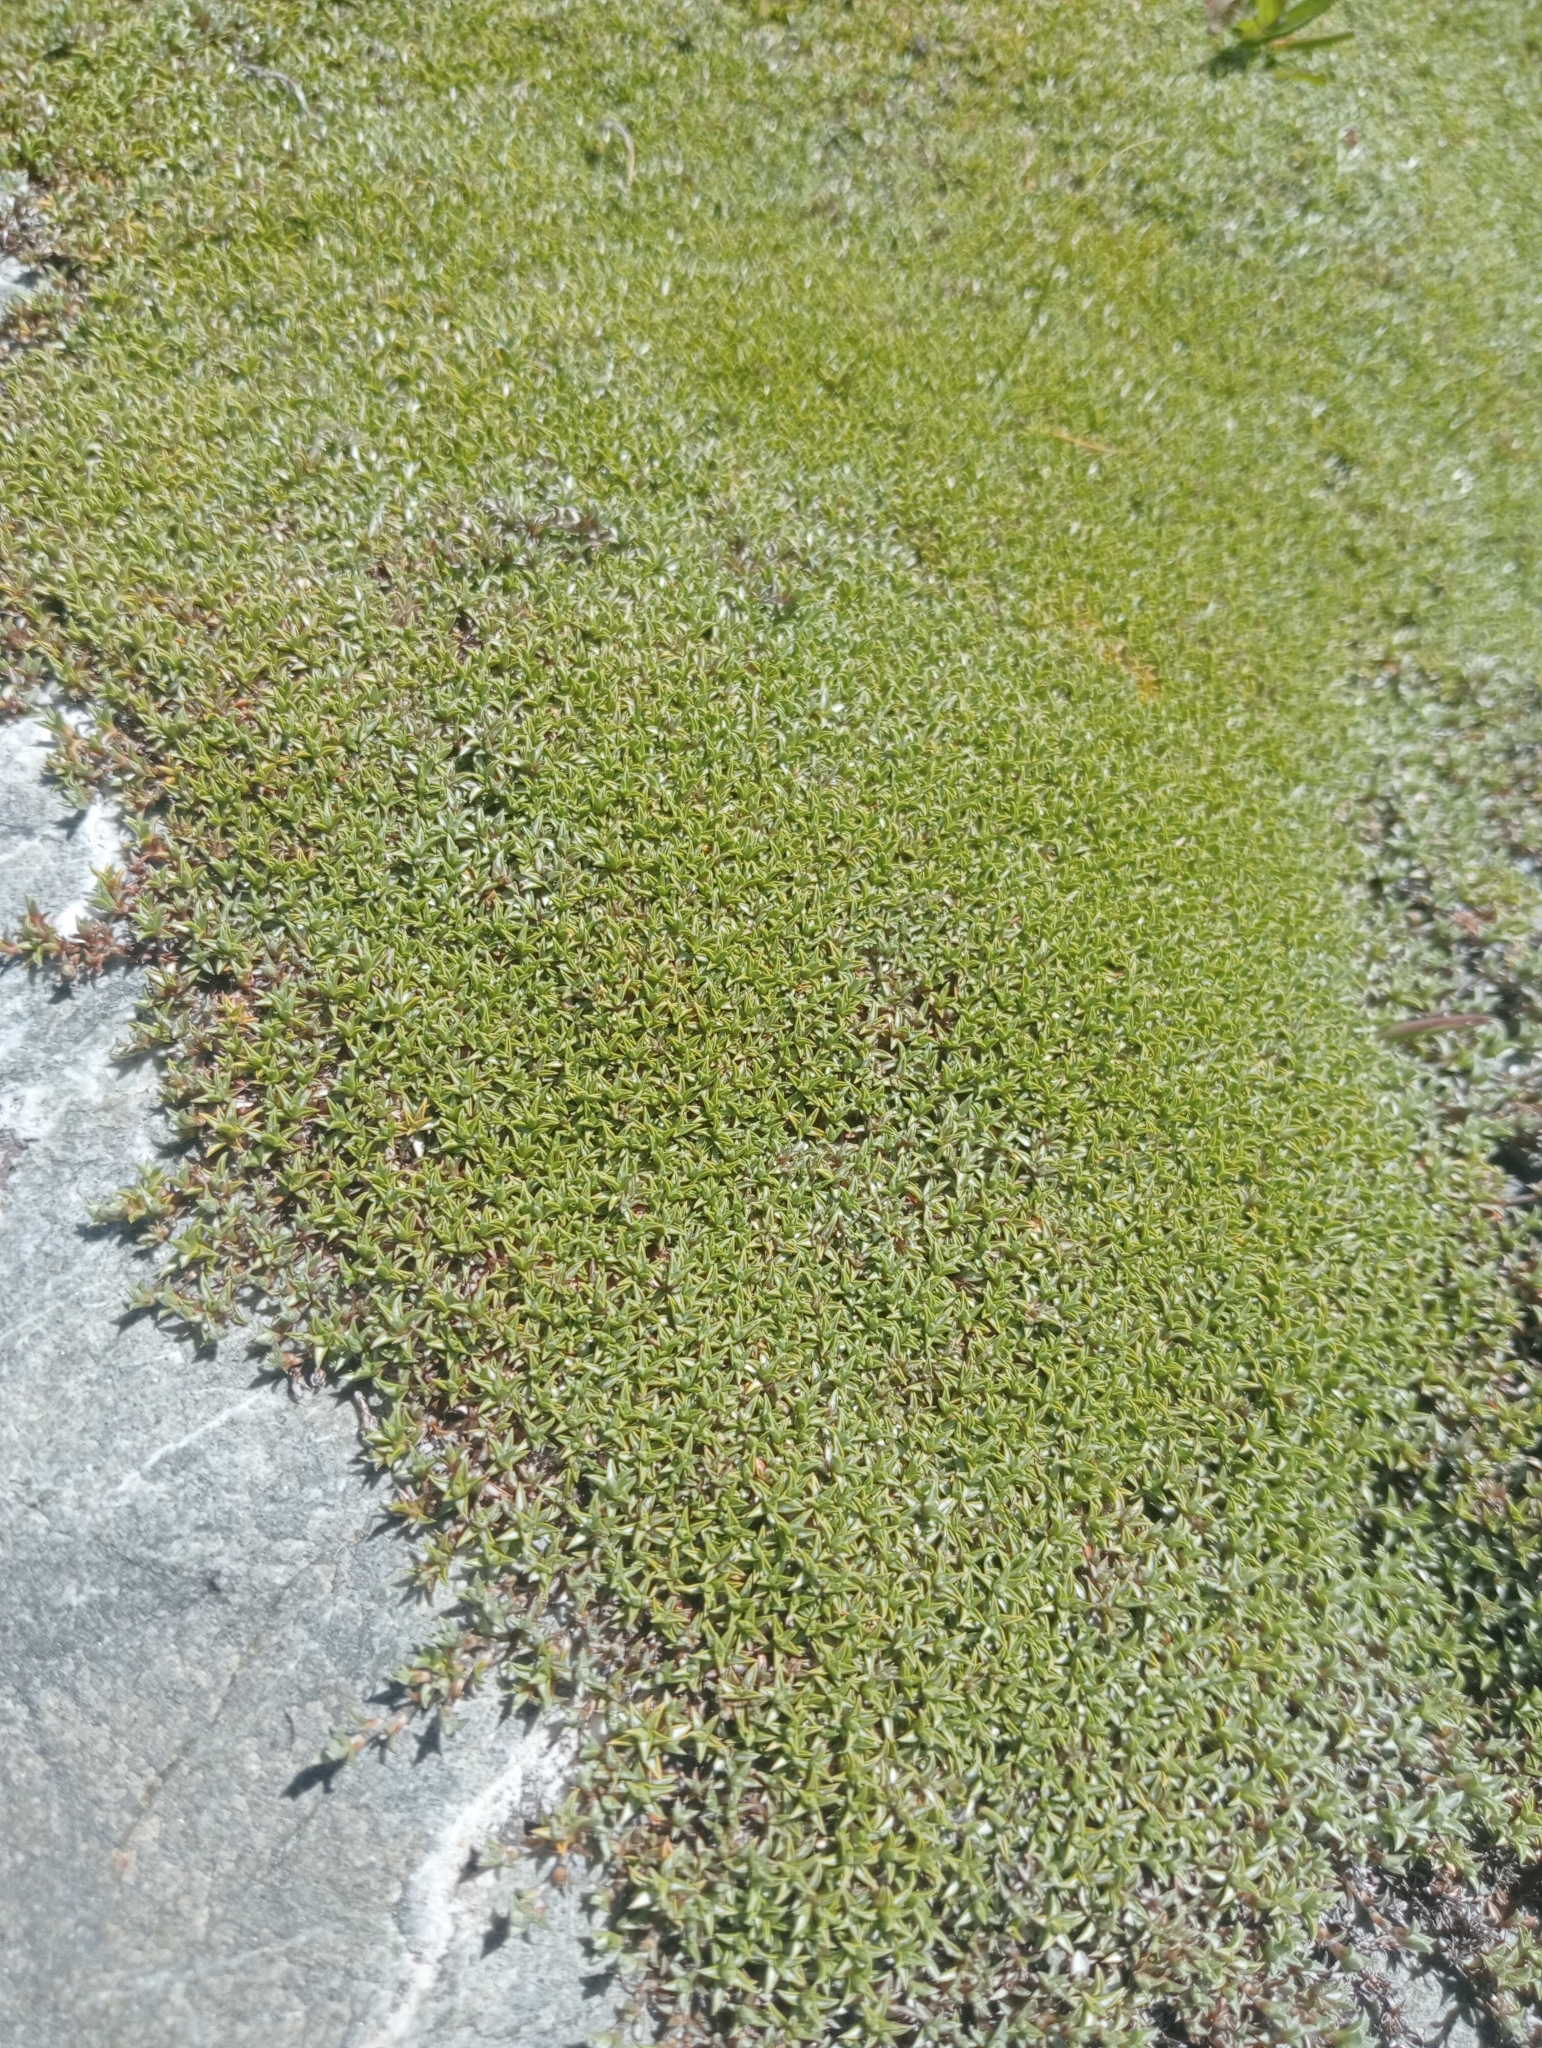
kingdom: Plantae
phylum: Tracheophyta
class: Magnoliopsida
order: Asterales
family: Asteraceae
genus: Raoulia
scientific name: Raoulia tenuicaulis
